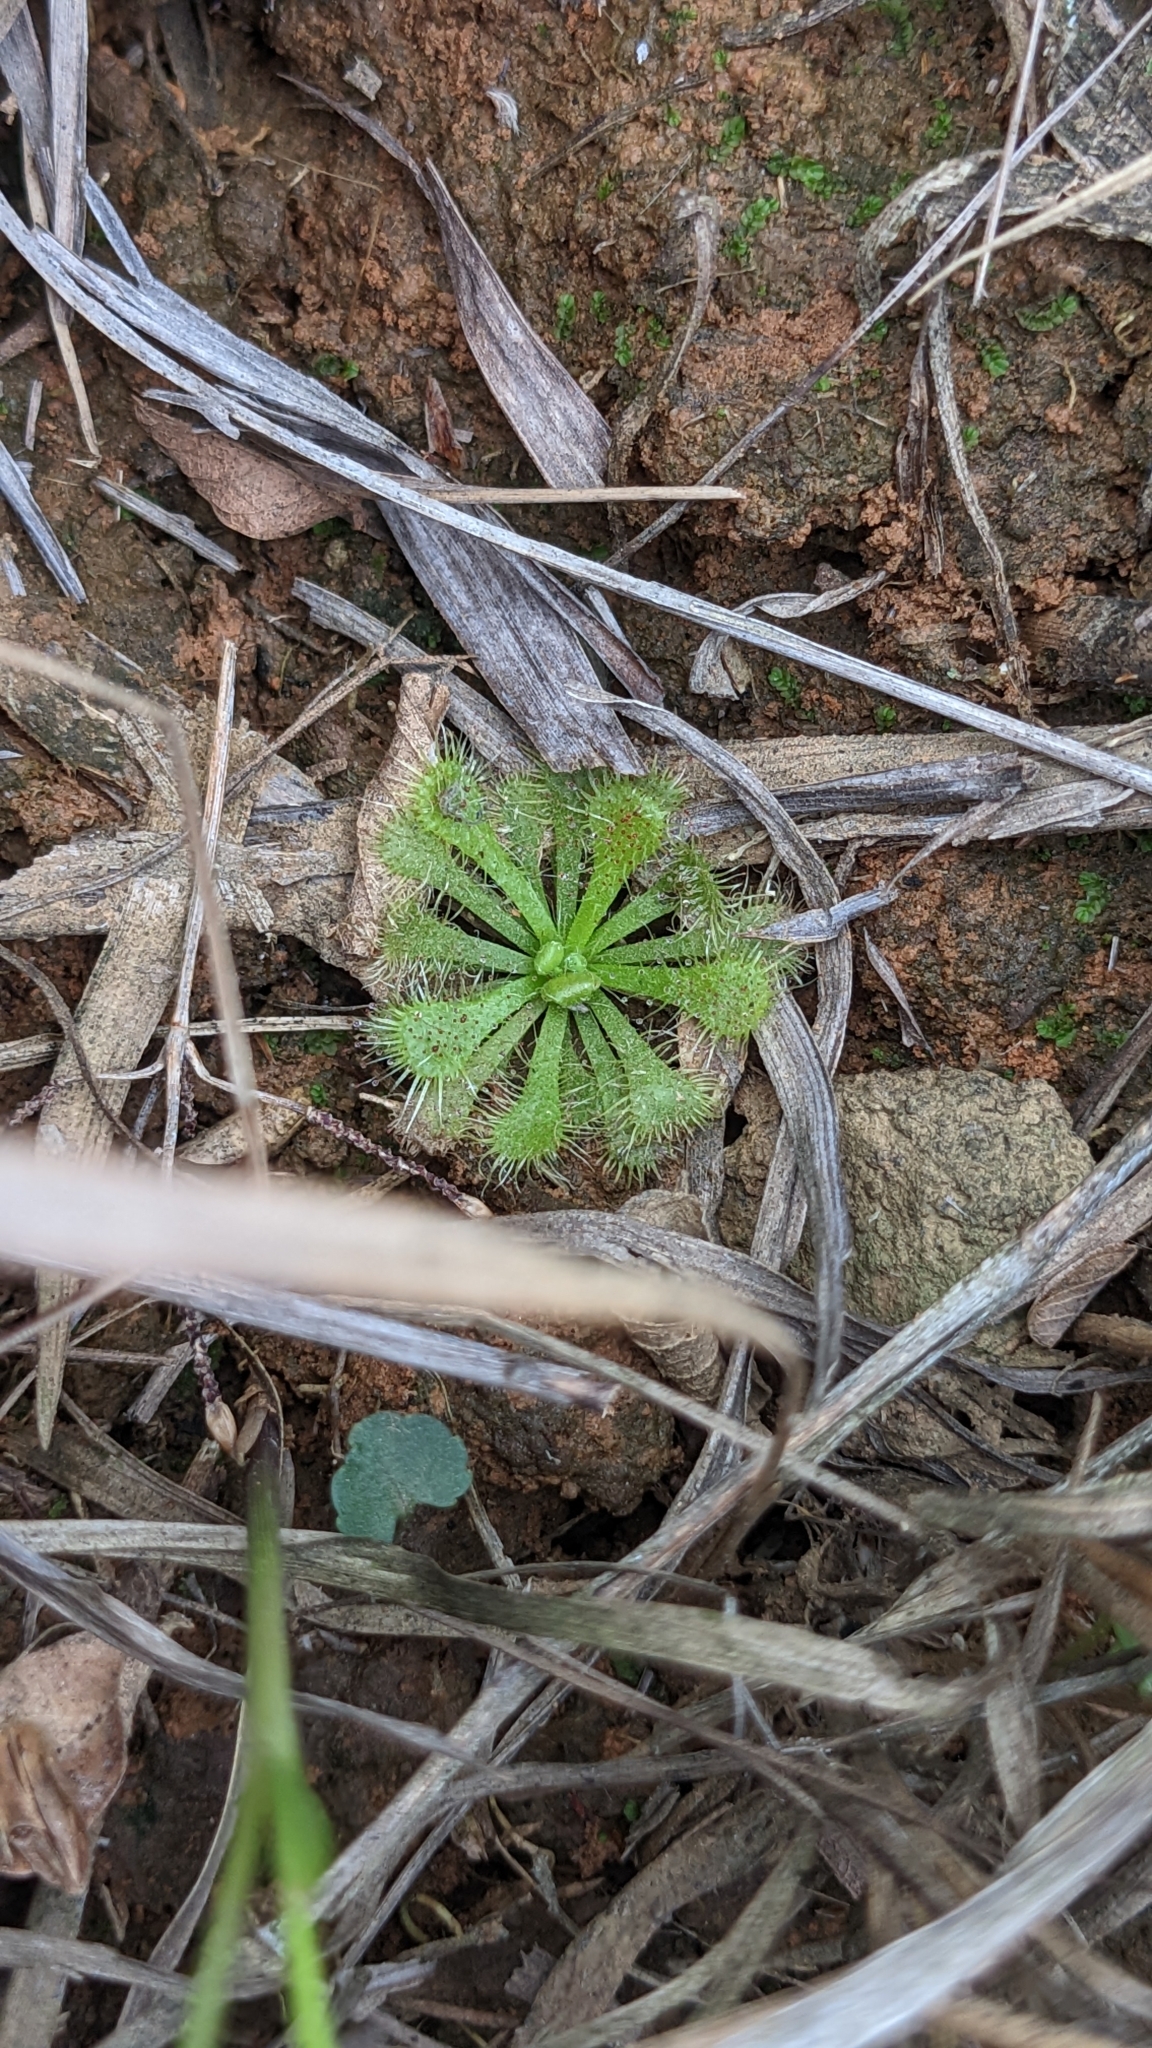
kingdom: Plantae
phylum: Tracheophyta
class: Magnoliopsida
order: Caryophyllales
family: Droseraceae
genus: Drosera
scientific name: Drosera spatulata
